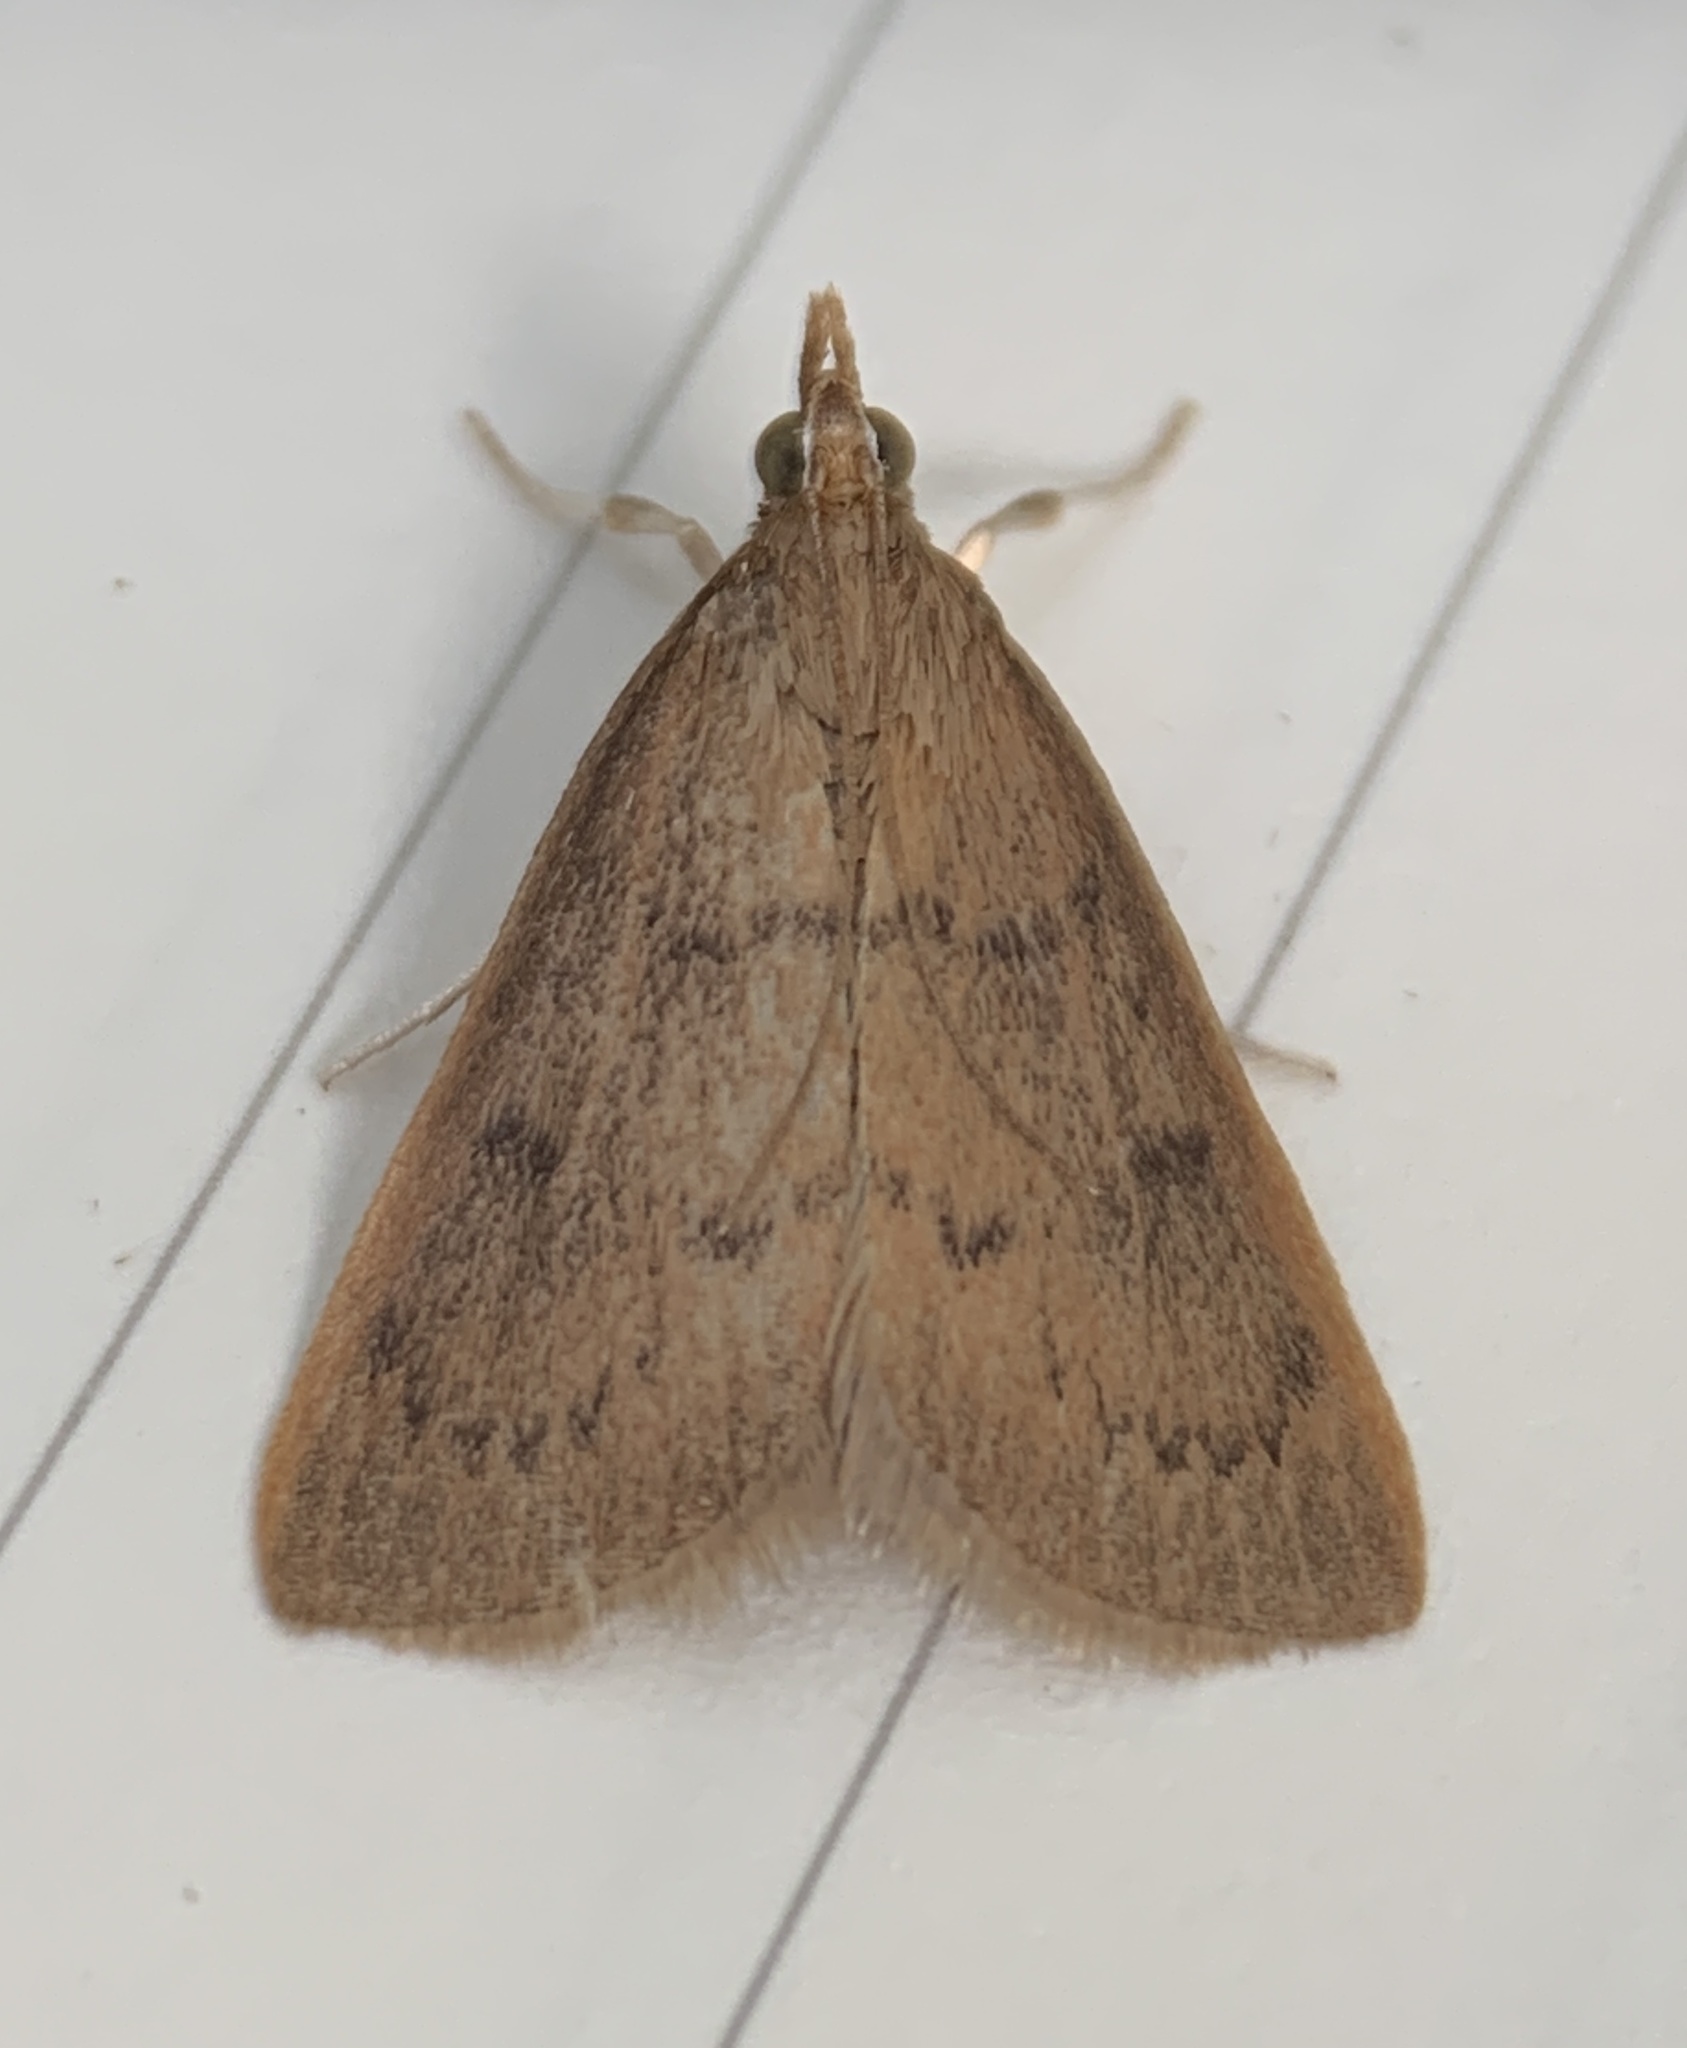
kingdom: Animalia
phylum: Arthropoda
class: Insecta
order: Lepidoptera
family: Crambidae
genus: Oenobotys
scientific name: Oenobotys vinotinctalis
